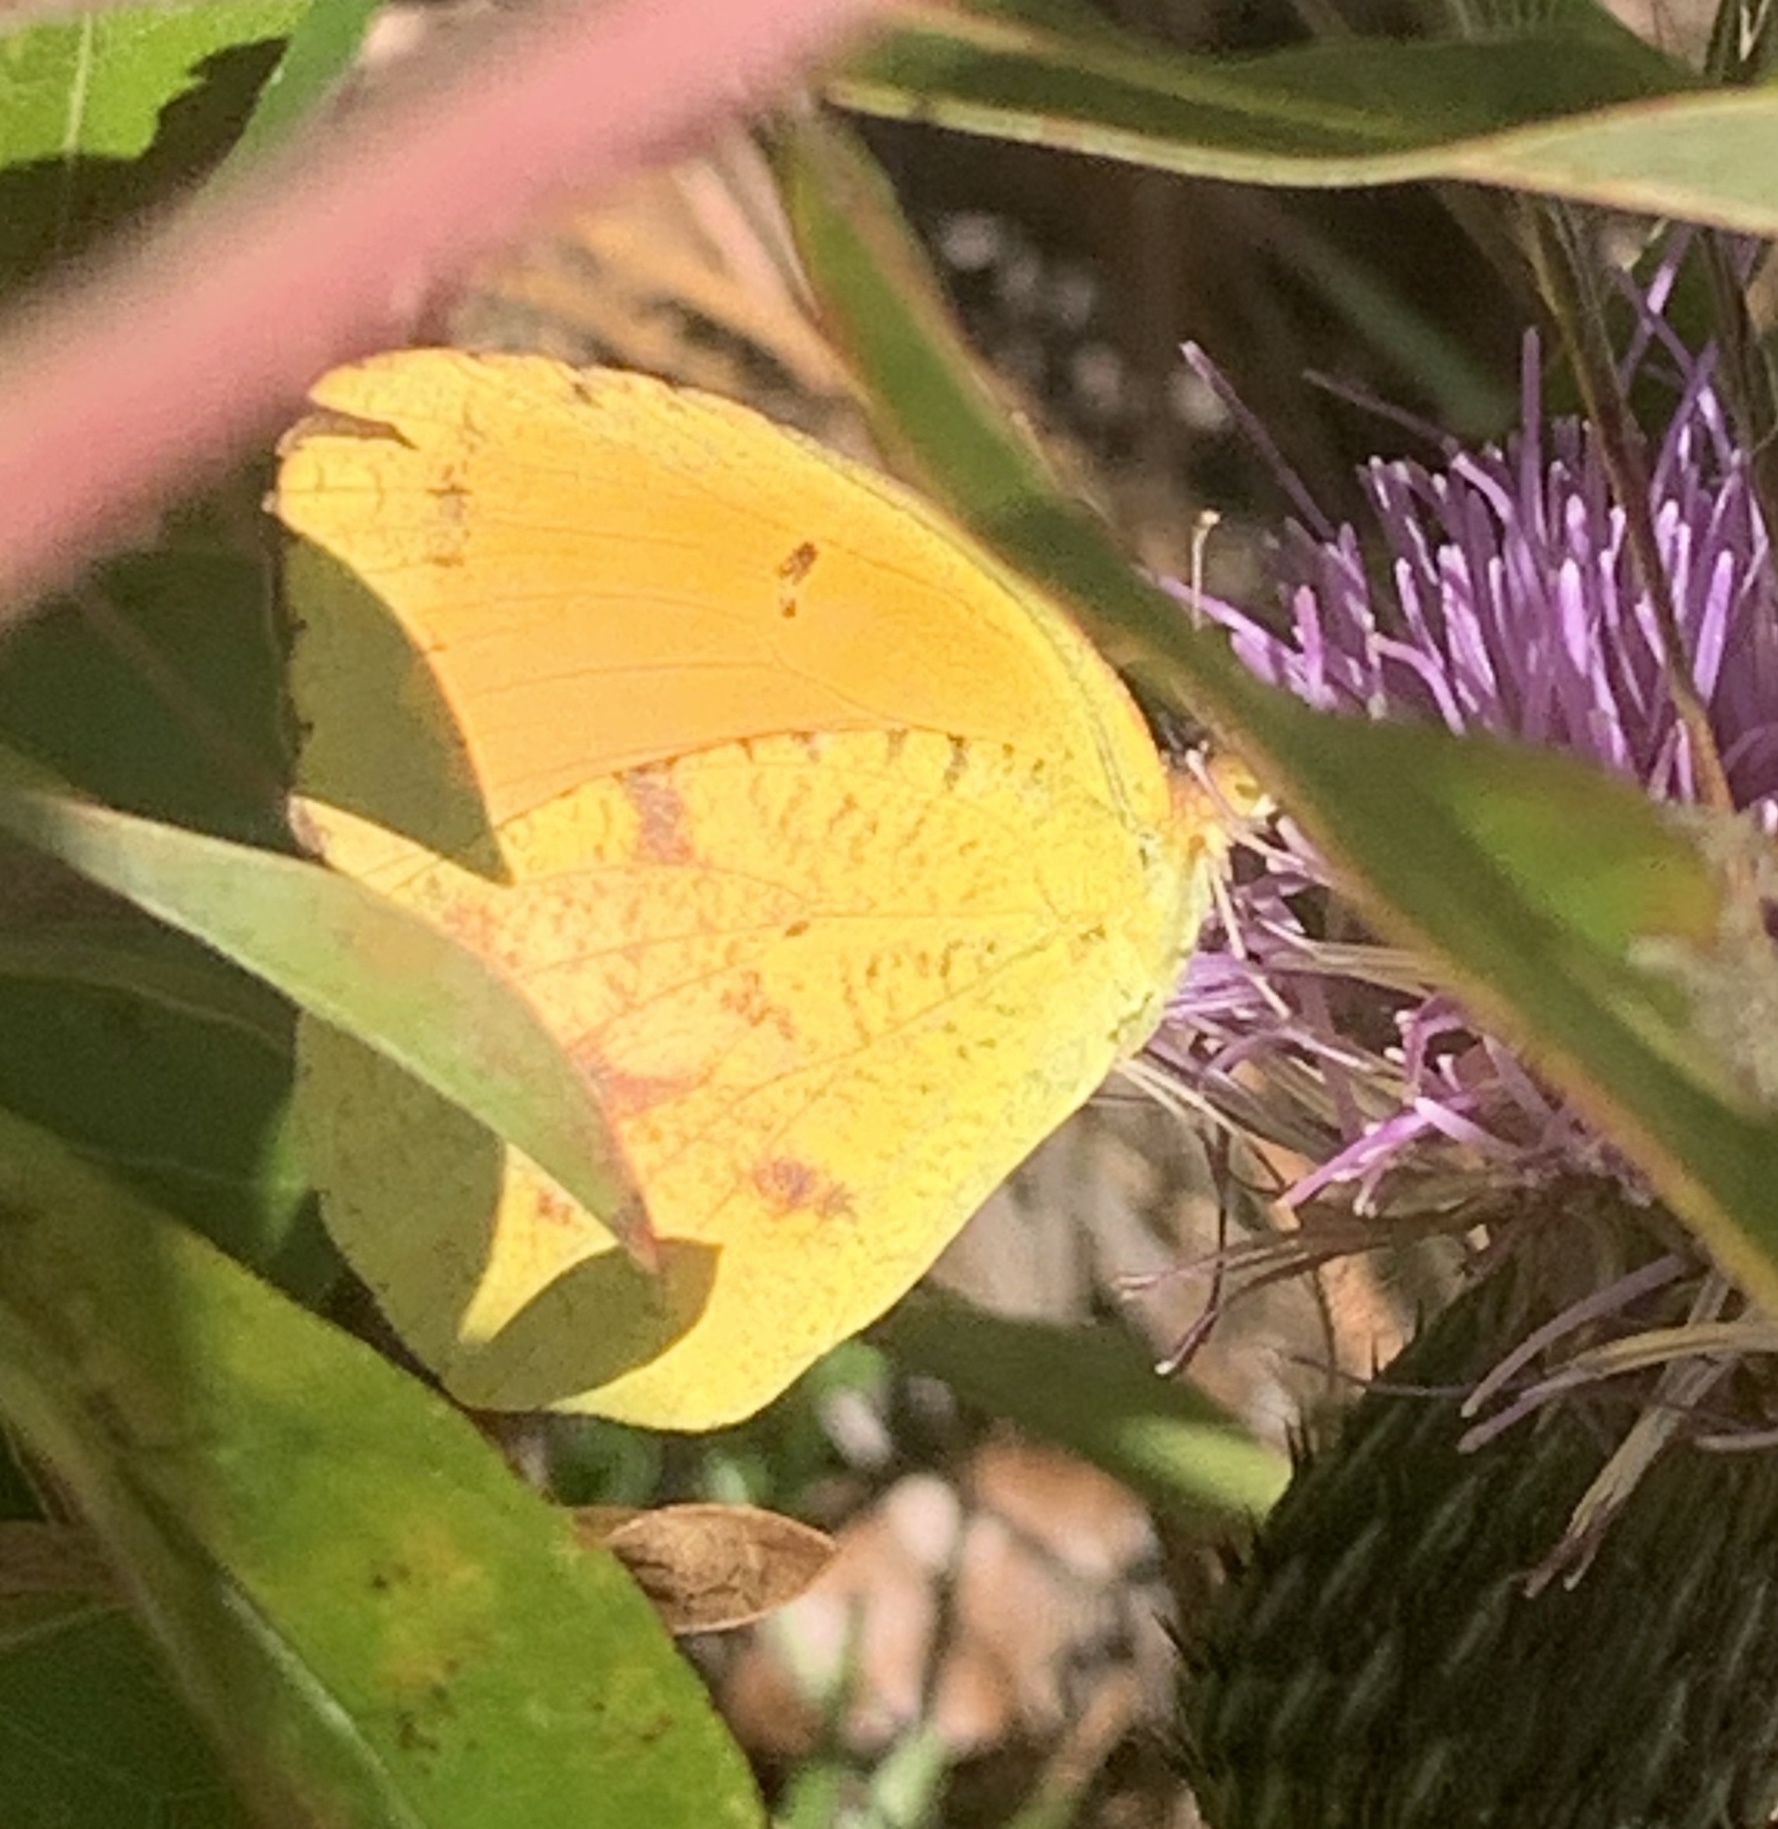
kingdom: Animalia
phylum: Arthropoda
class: Insecta
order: Lepidoptera
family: Pieridae
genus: Abaeis
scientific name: Abaeis nicippe
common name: Sleepy orange
